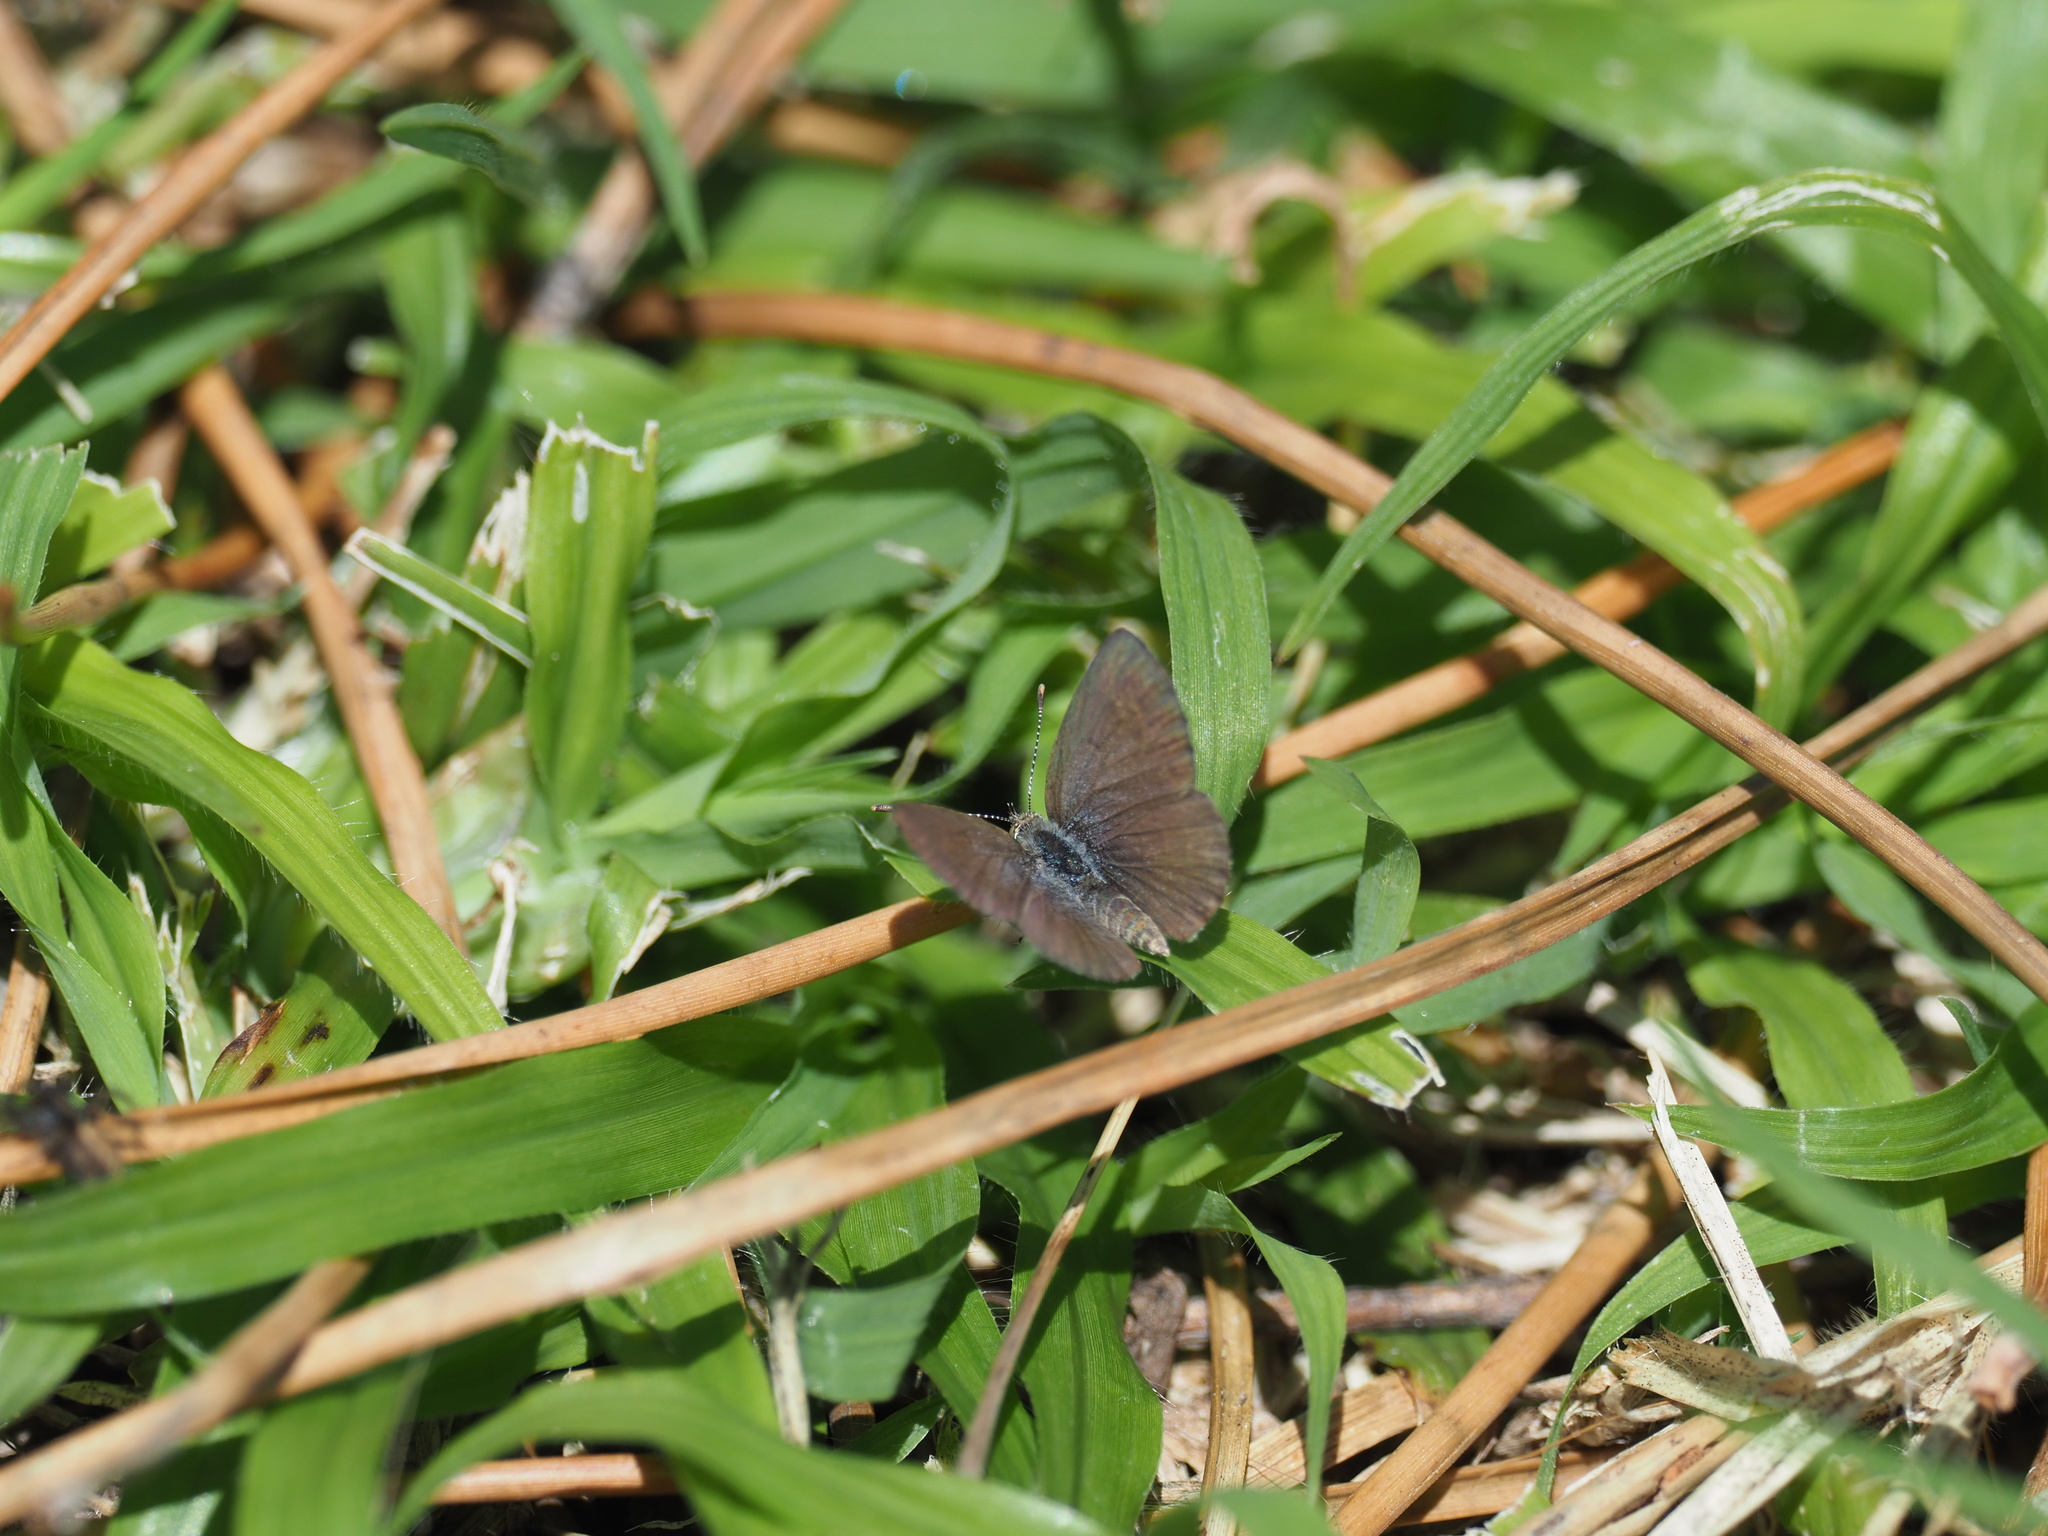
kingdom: Animalia
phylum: Arthropoda
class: Insecta
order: Lepidoptera
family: Lycaenidae
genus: Zizeeria
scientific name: Zizeeria knysna
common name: African grass blue
